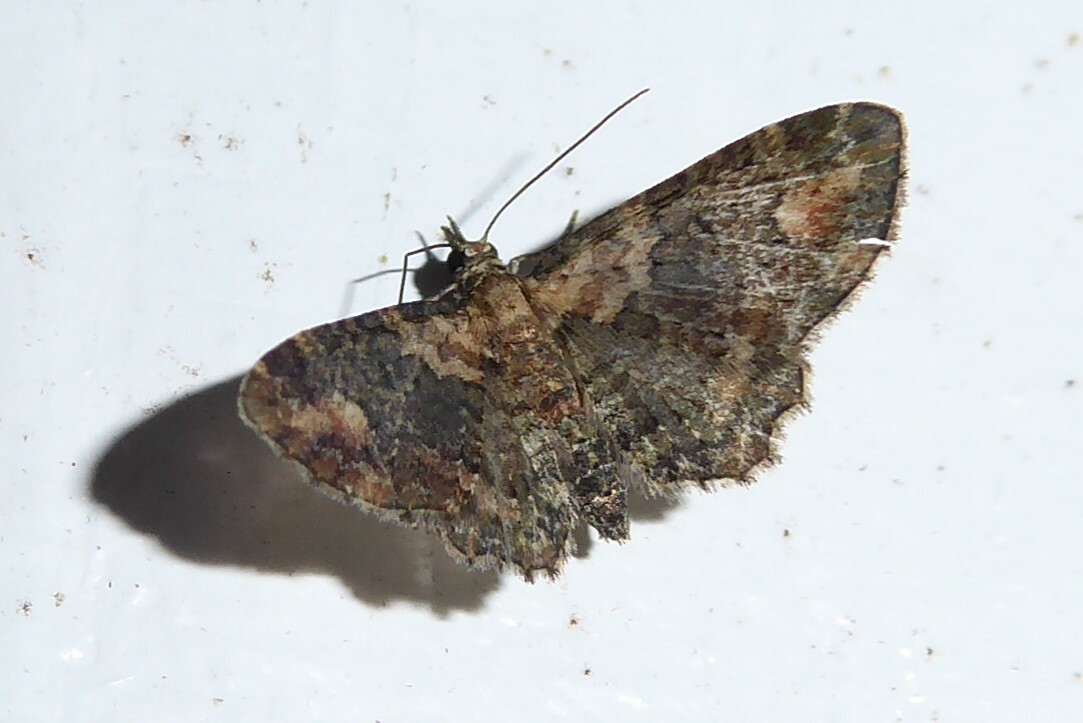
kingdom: Animalia
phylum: Arthropoda
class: Insecta
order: Lepidoptera
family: Geometridae
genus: Pasiphilodes
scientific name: Pasiphilodes testulata
